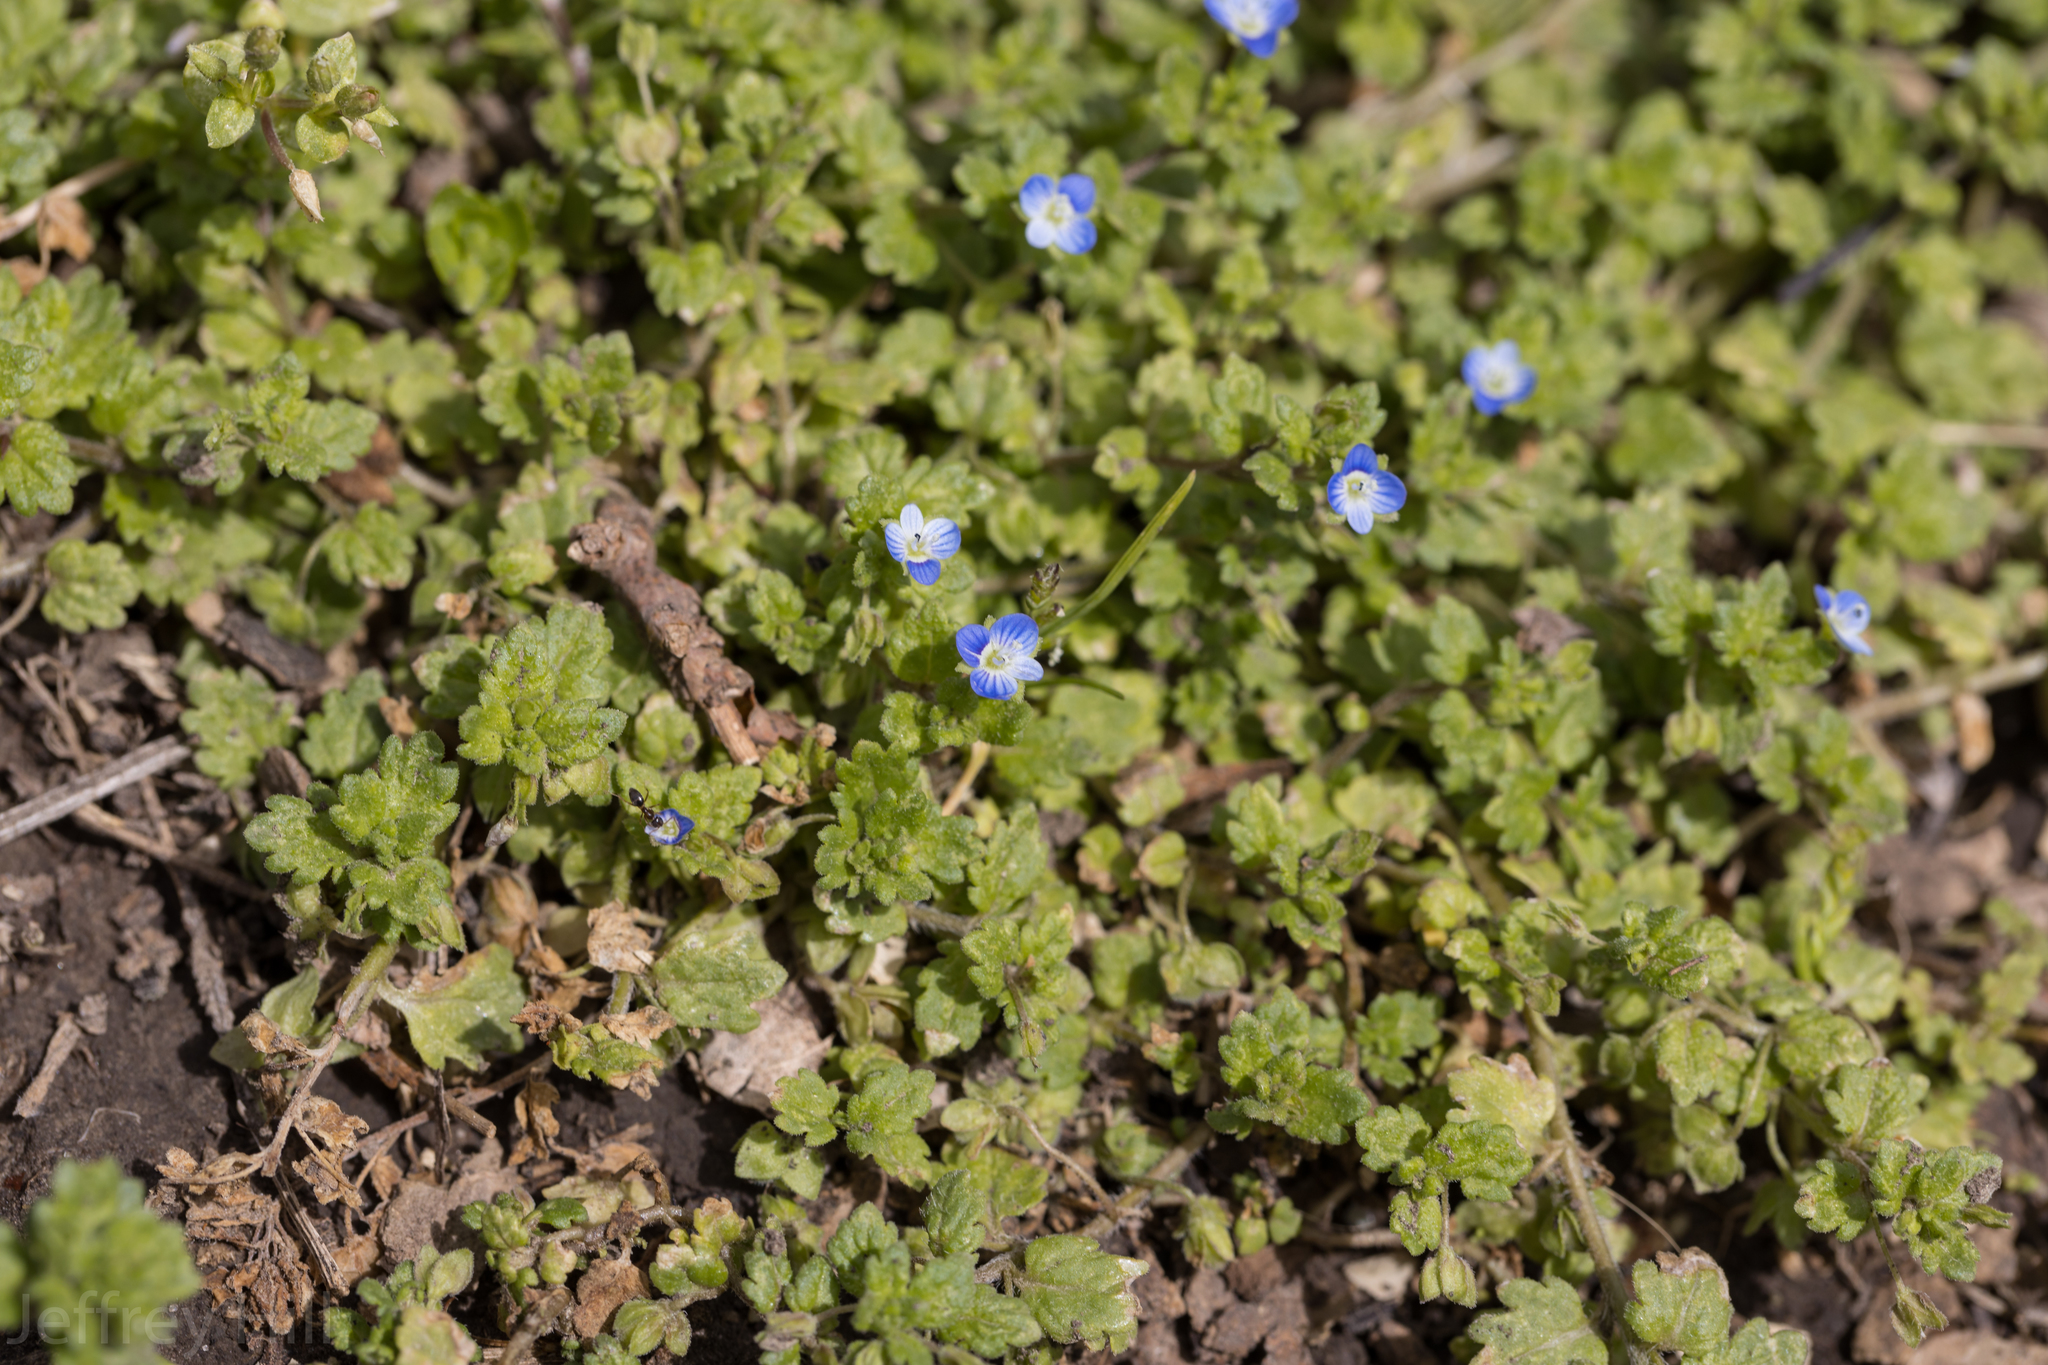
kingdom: Plantae
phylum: Tracheophyta
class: Magnoliopsida
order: Lamiales
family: Plantaginaceae
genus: Veronica
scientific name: Veronica persica
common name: Common field-speedwell
